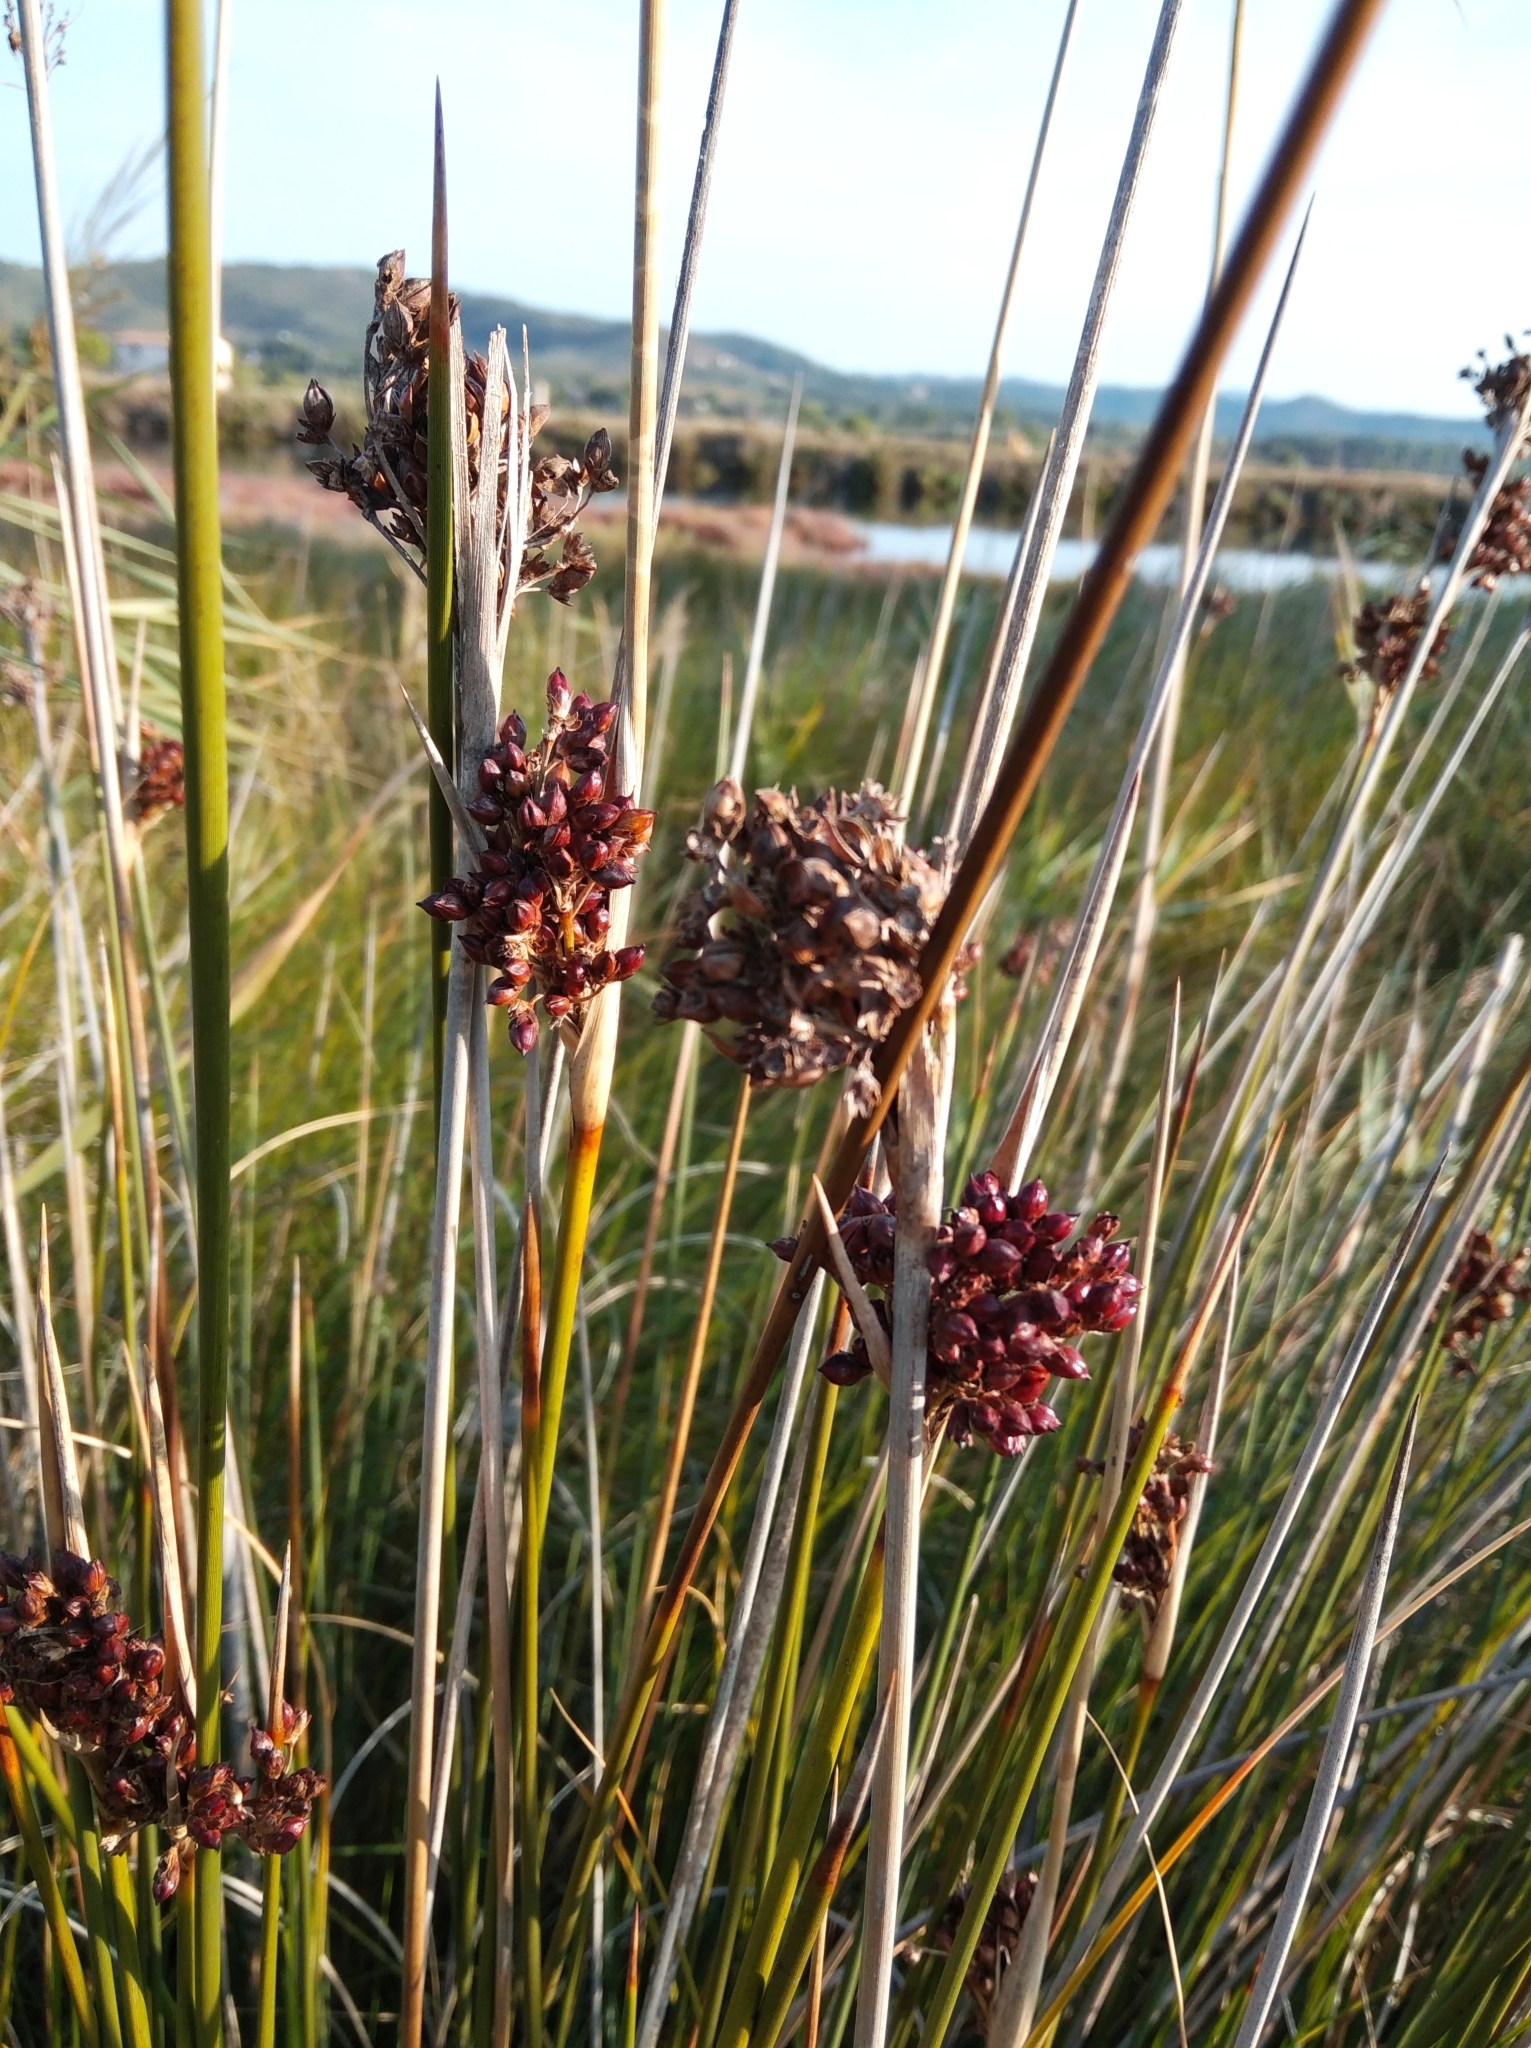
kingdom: Plantae
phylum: Tracheophyta
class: Liliopsida
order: Poales
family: Juncaceae
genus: Juncus
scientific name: Juncus acutus
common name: Sharp rush
